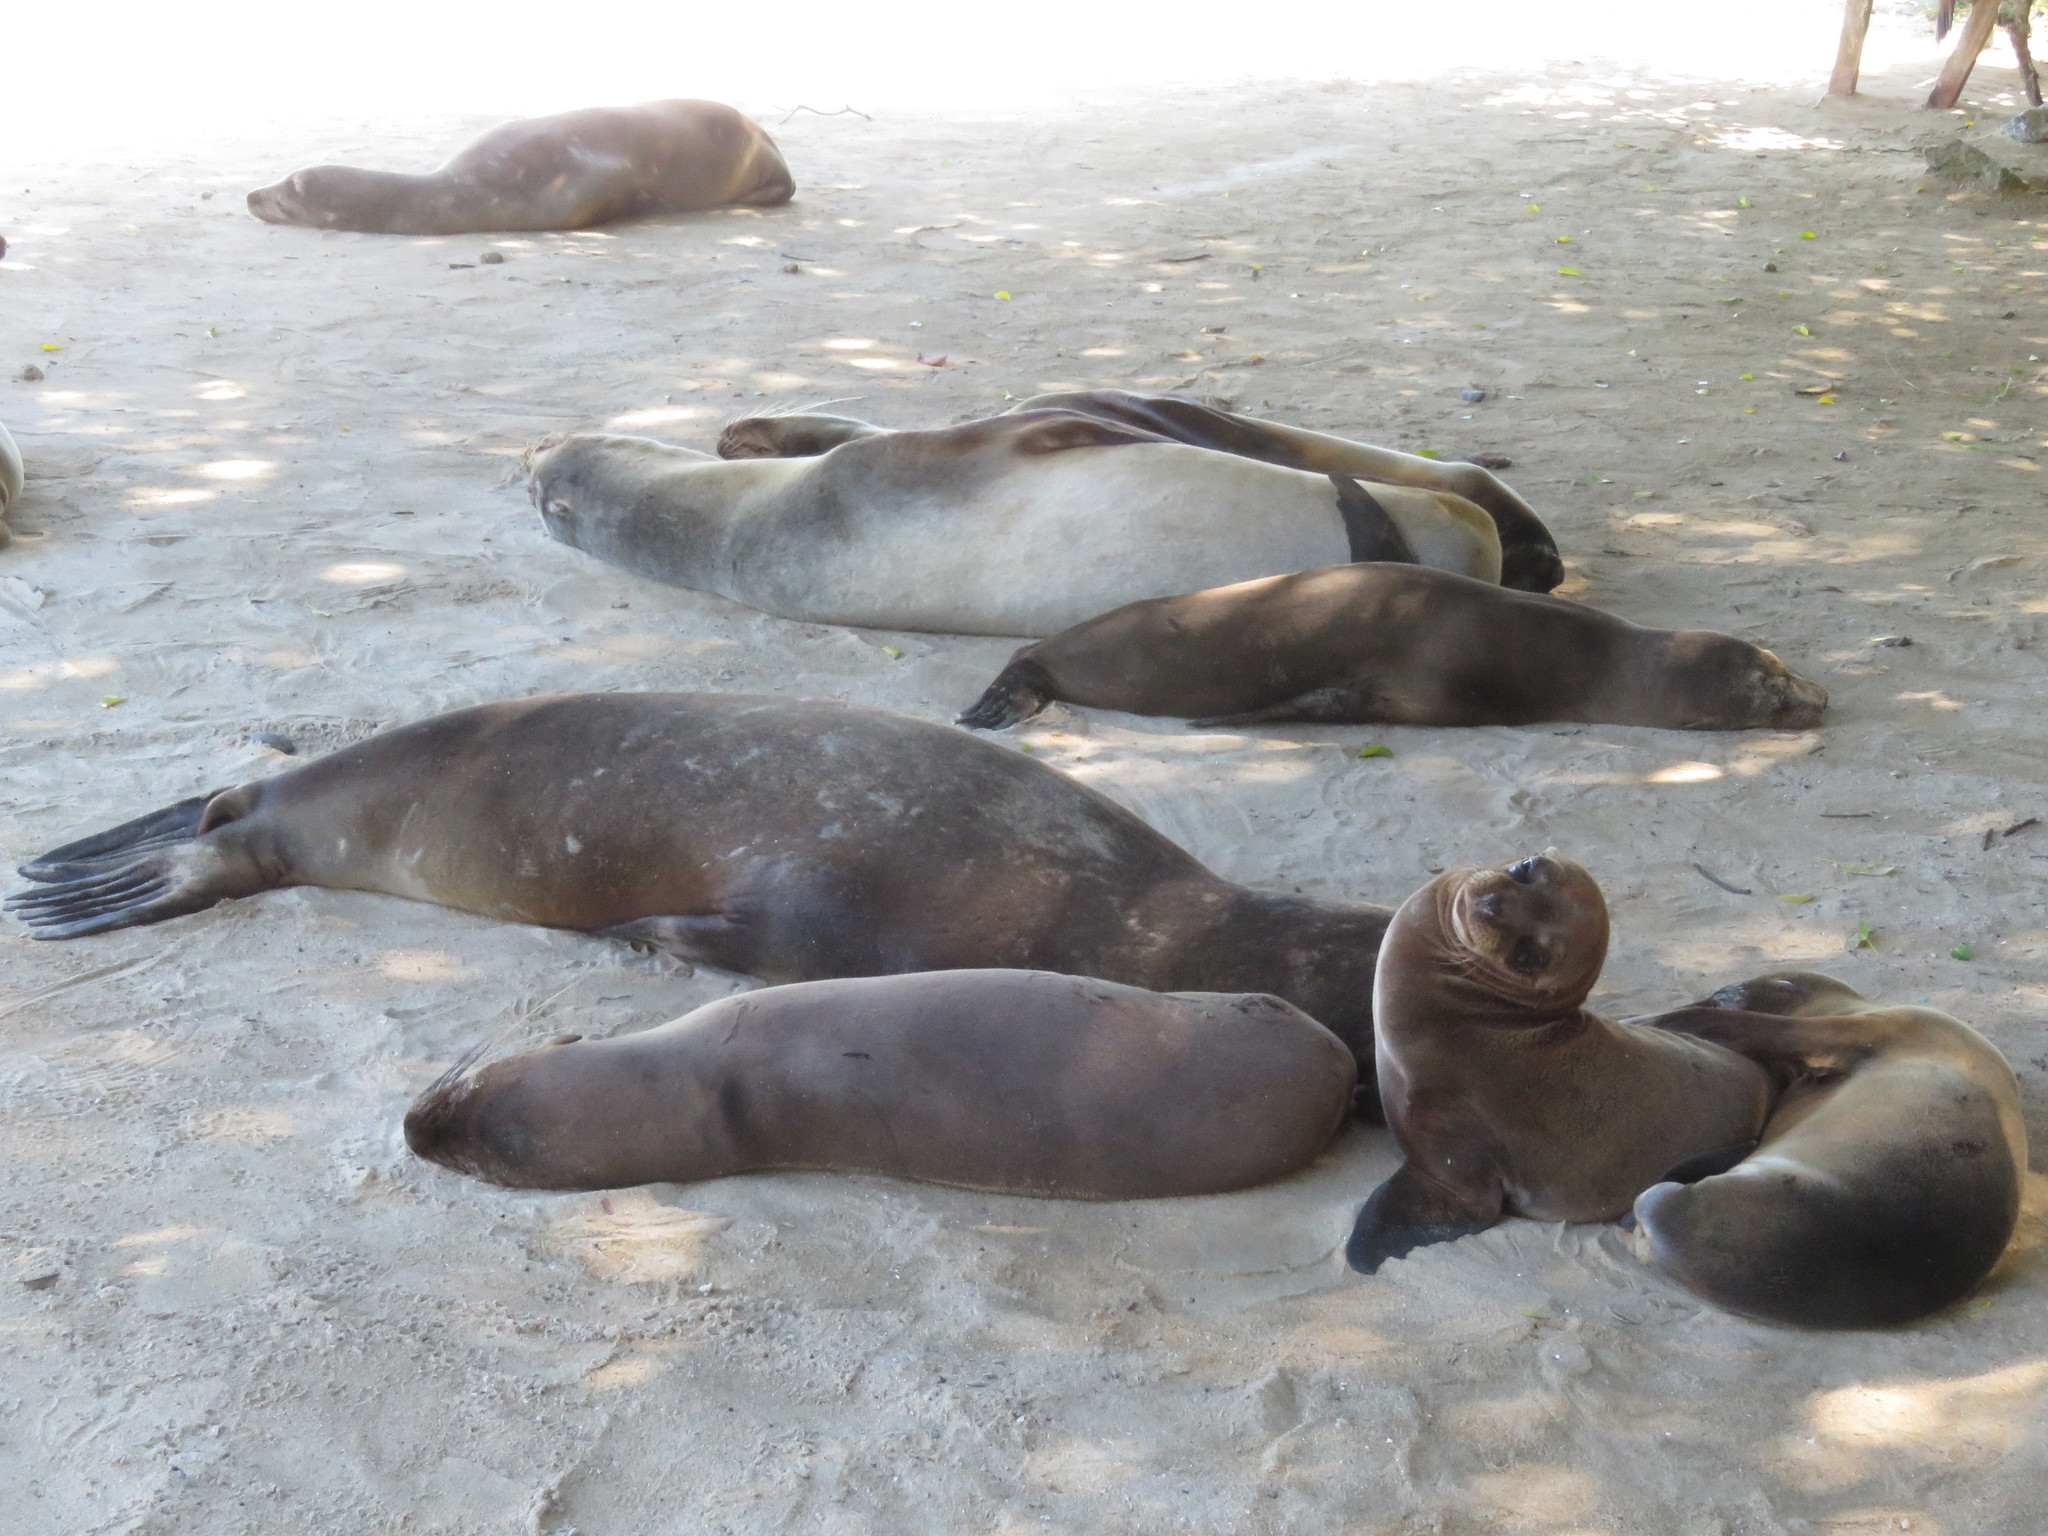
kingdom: Animalia
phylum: Chordata
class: Mammalia
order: Carnivora
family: Otariidae
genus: Zalophus
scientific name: Zalophus wollebaeki
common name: Galapagos sea lion
